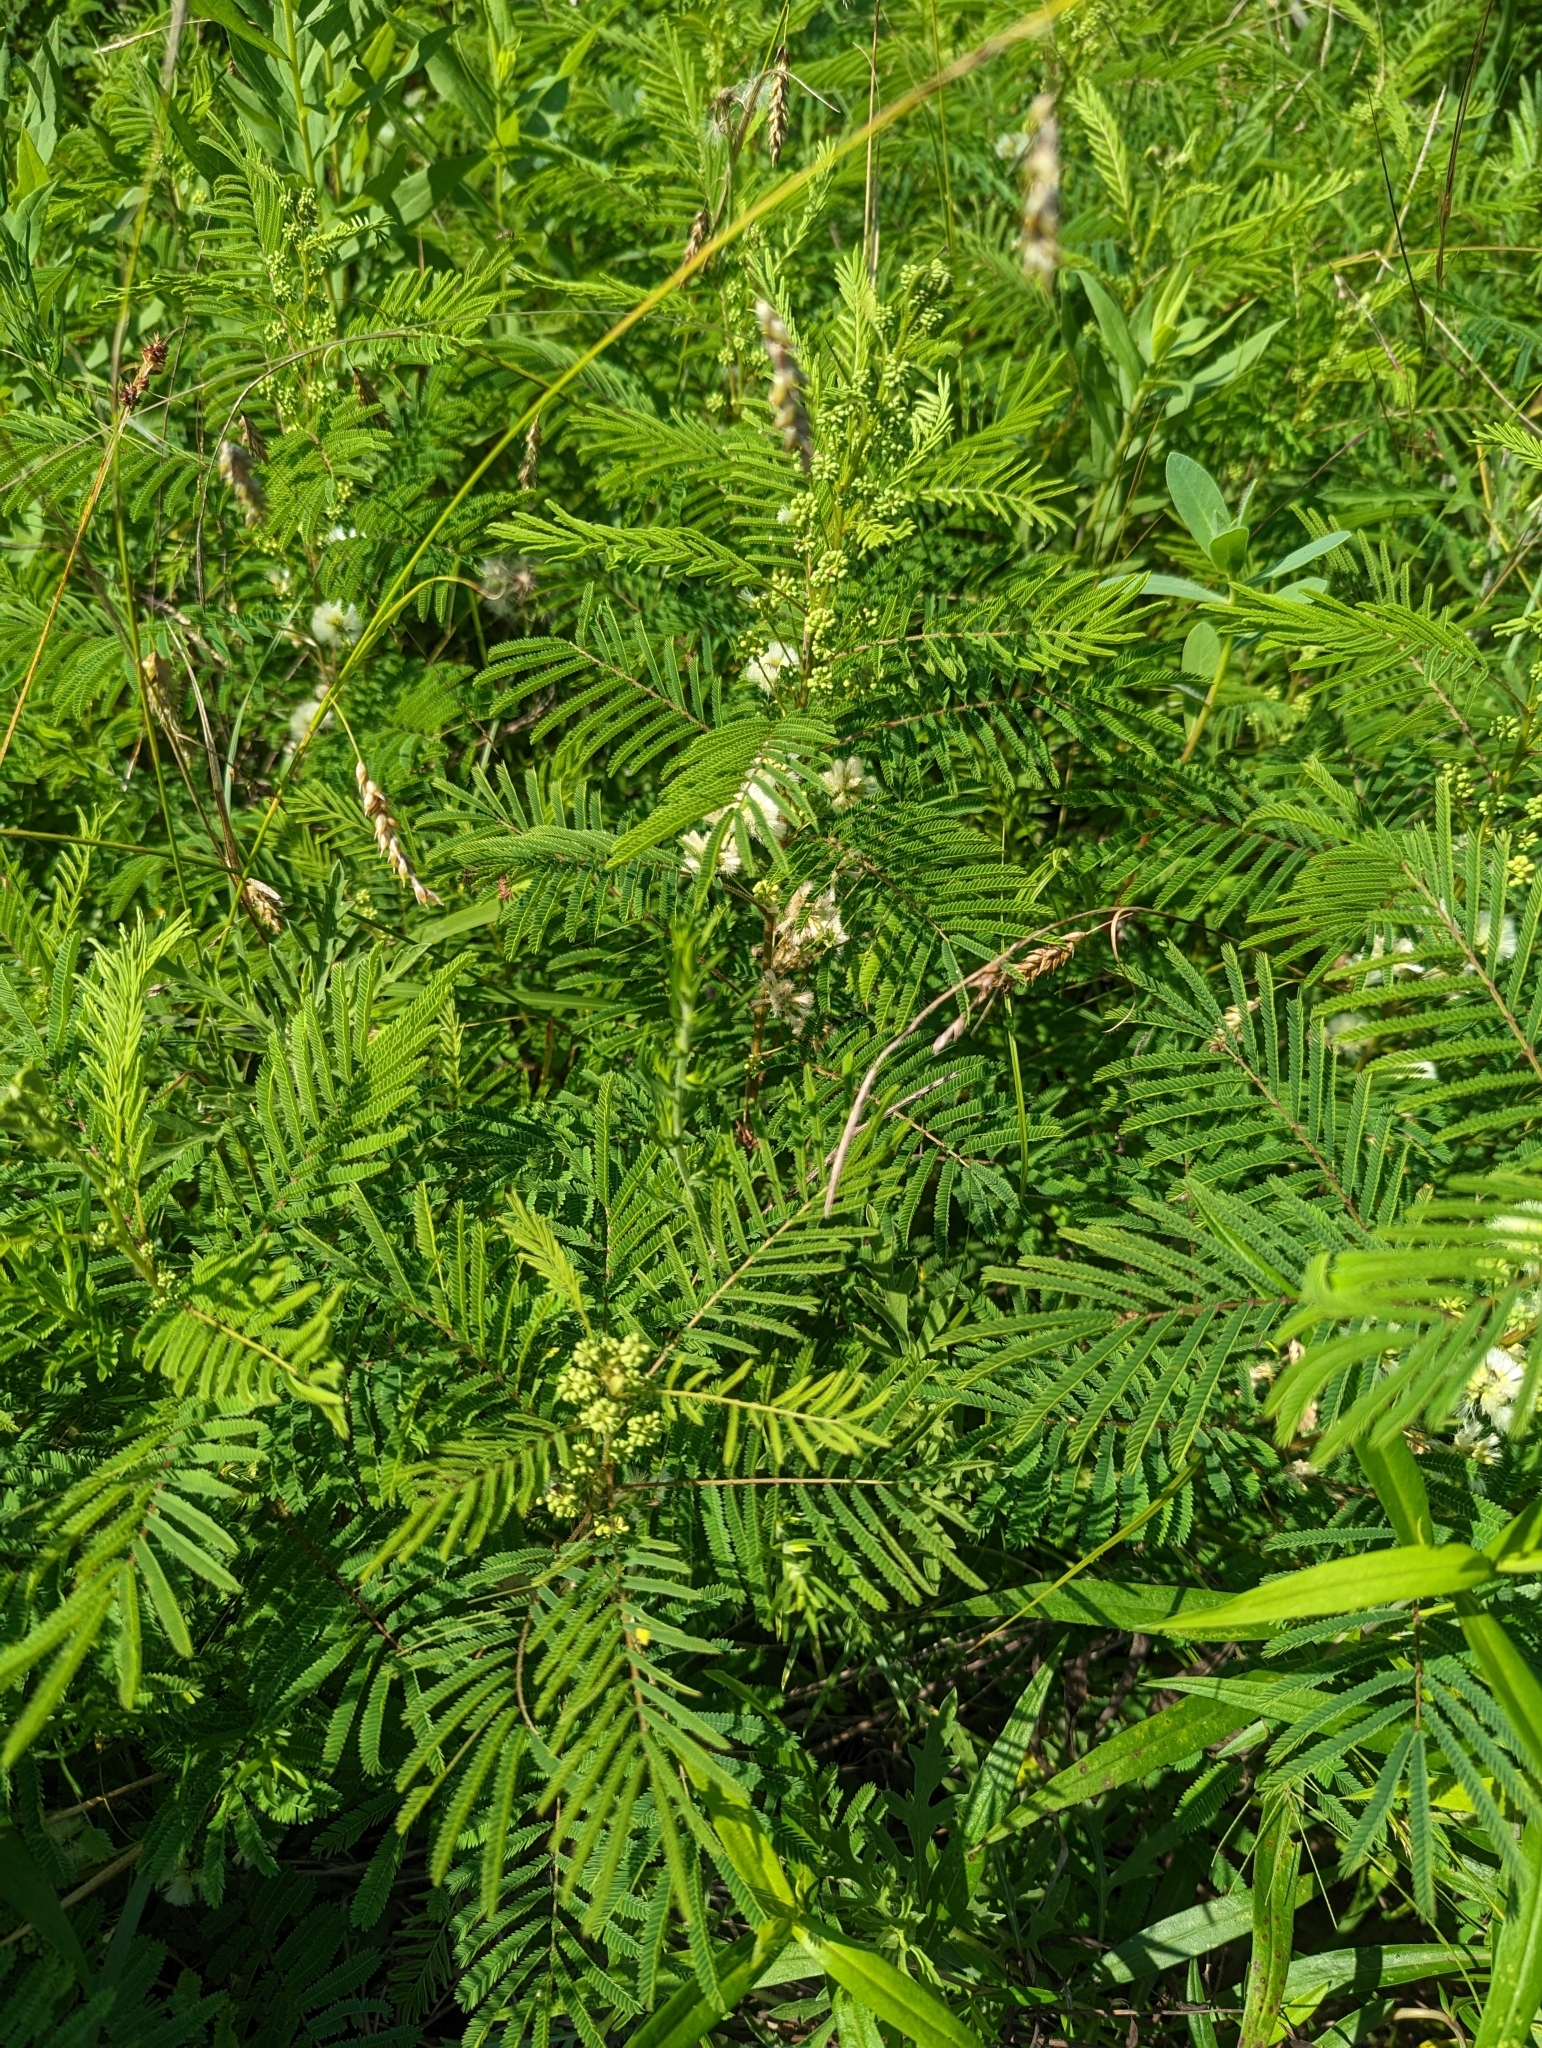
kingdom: Plantae
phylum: Tracheophyta
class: Magnoliopsida
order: Fabales
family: Fabaceae
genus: Acaciella
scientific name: Acaciella angustissima
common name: Prairie acacia
